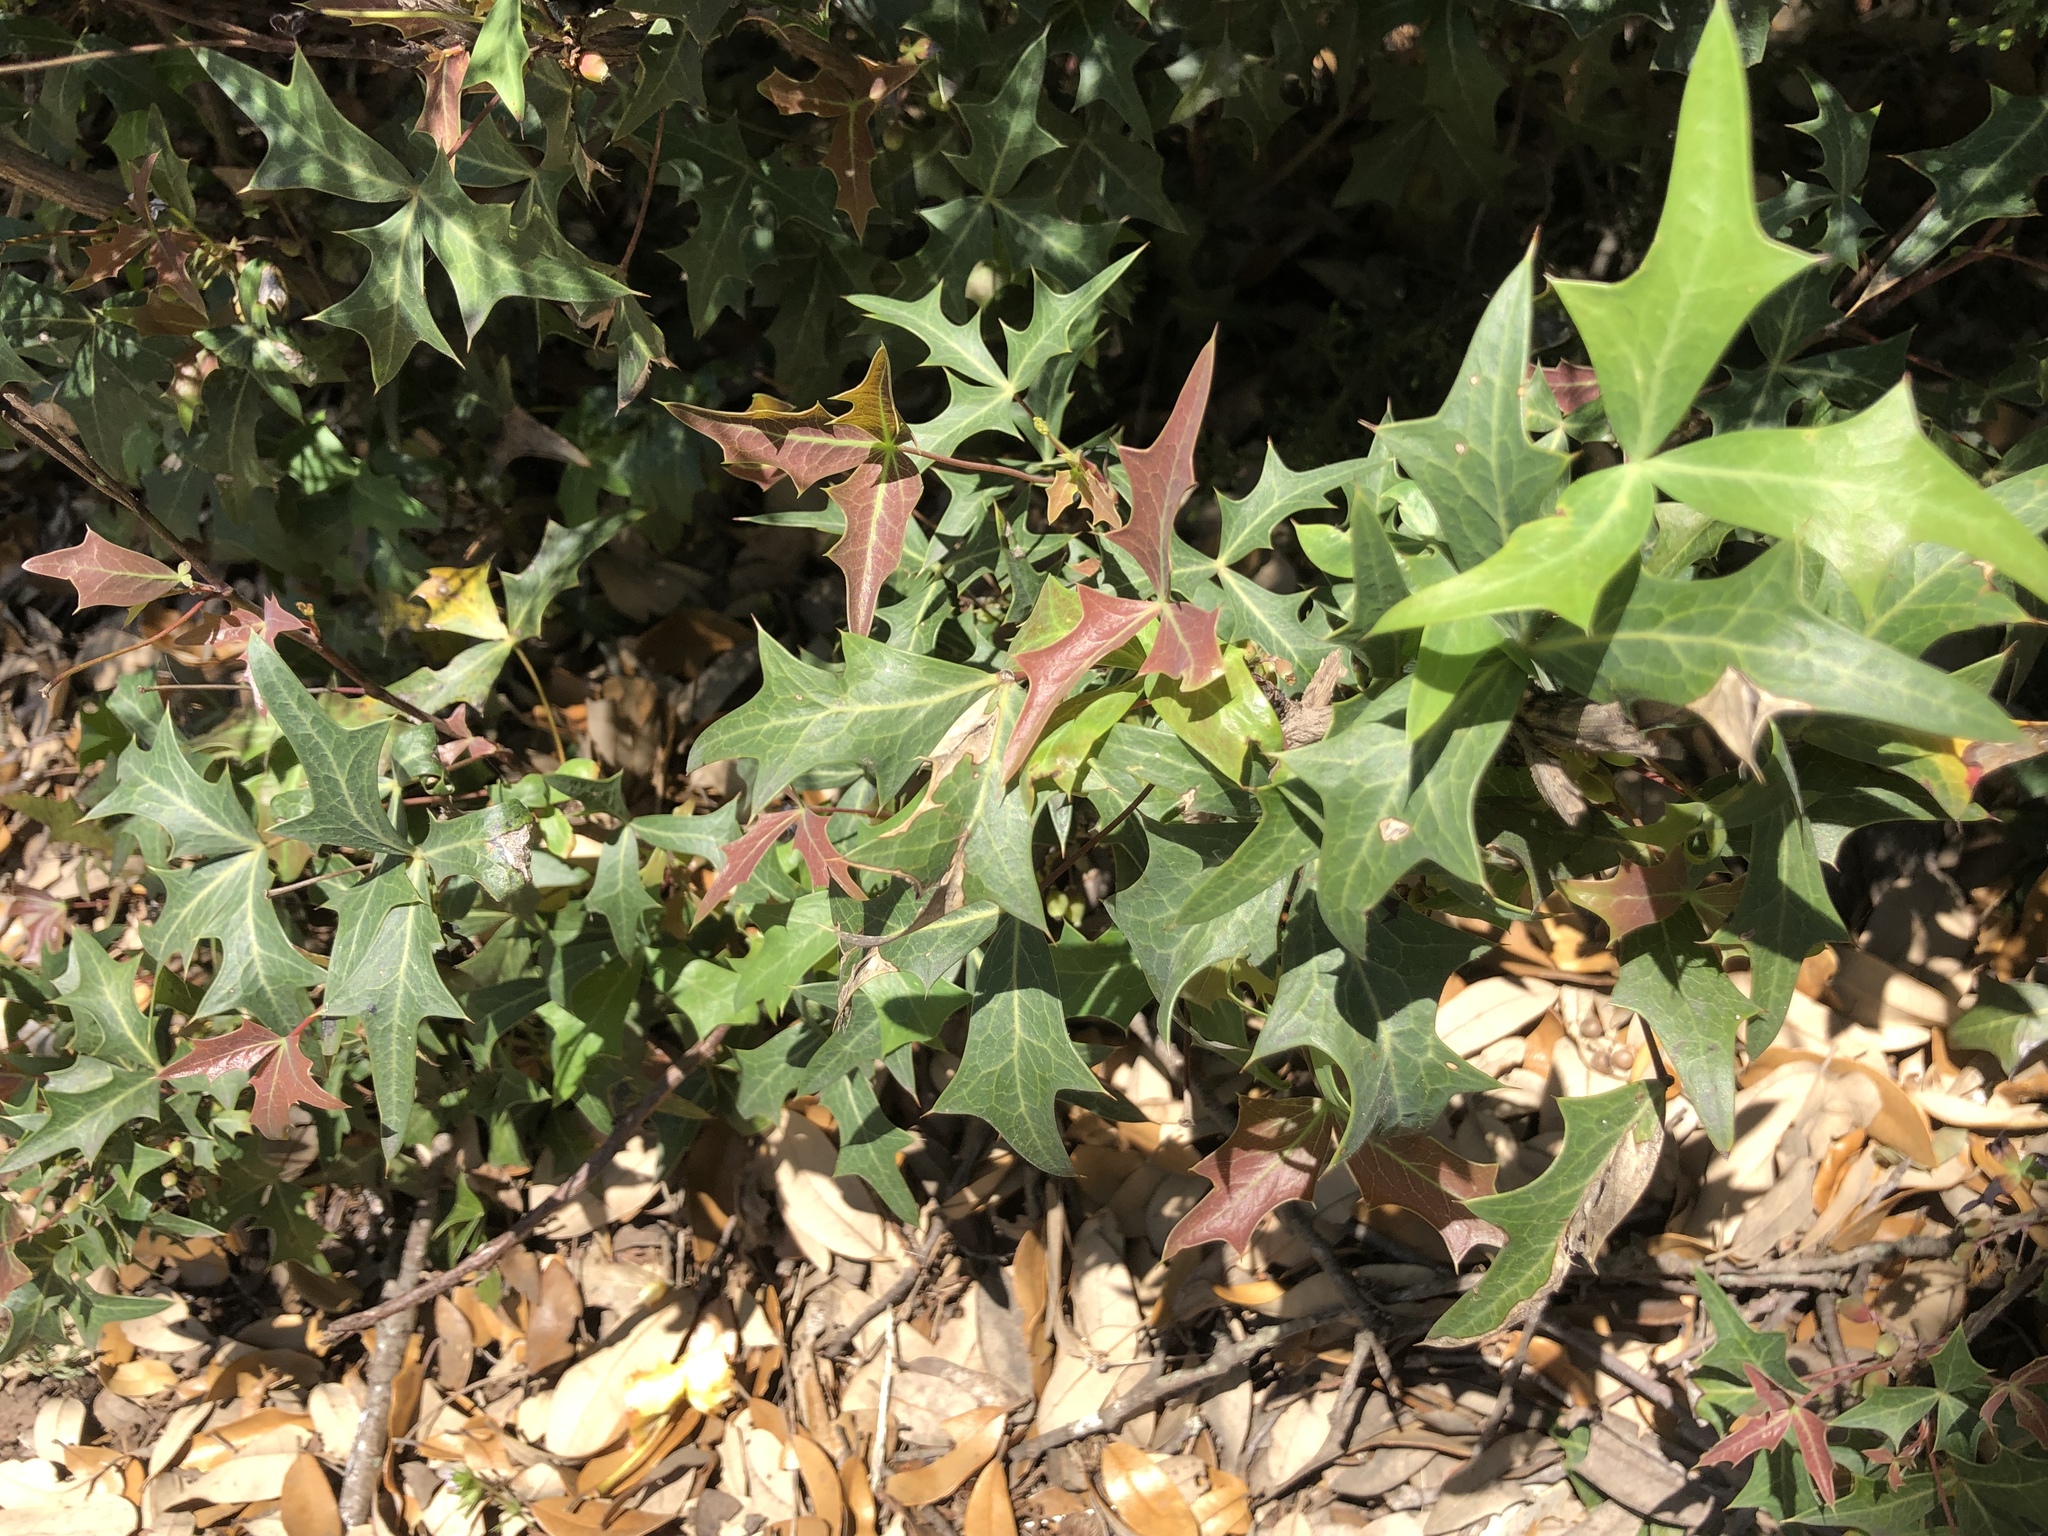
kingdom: Plantae
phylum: Tracheophyta
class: Magnoliopsida
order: Ranunculales
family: Berberidaceae
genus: Alloberberis
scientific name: Alloberberis trifoliolata
